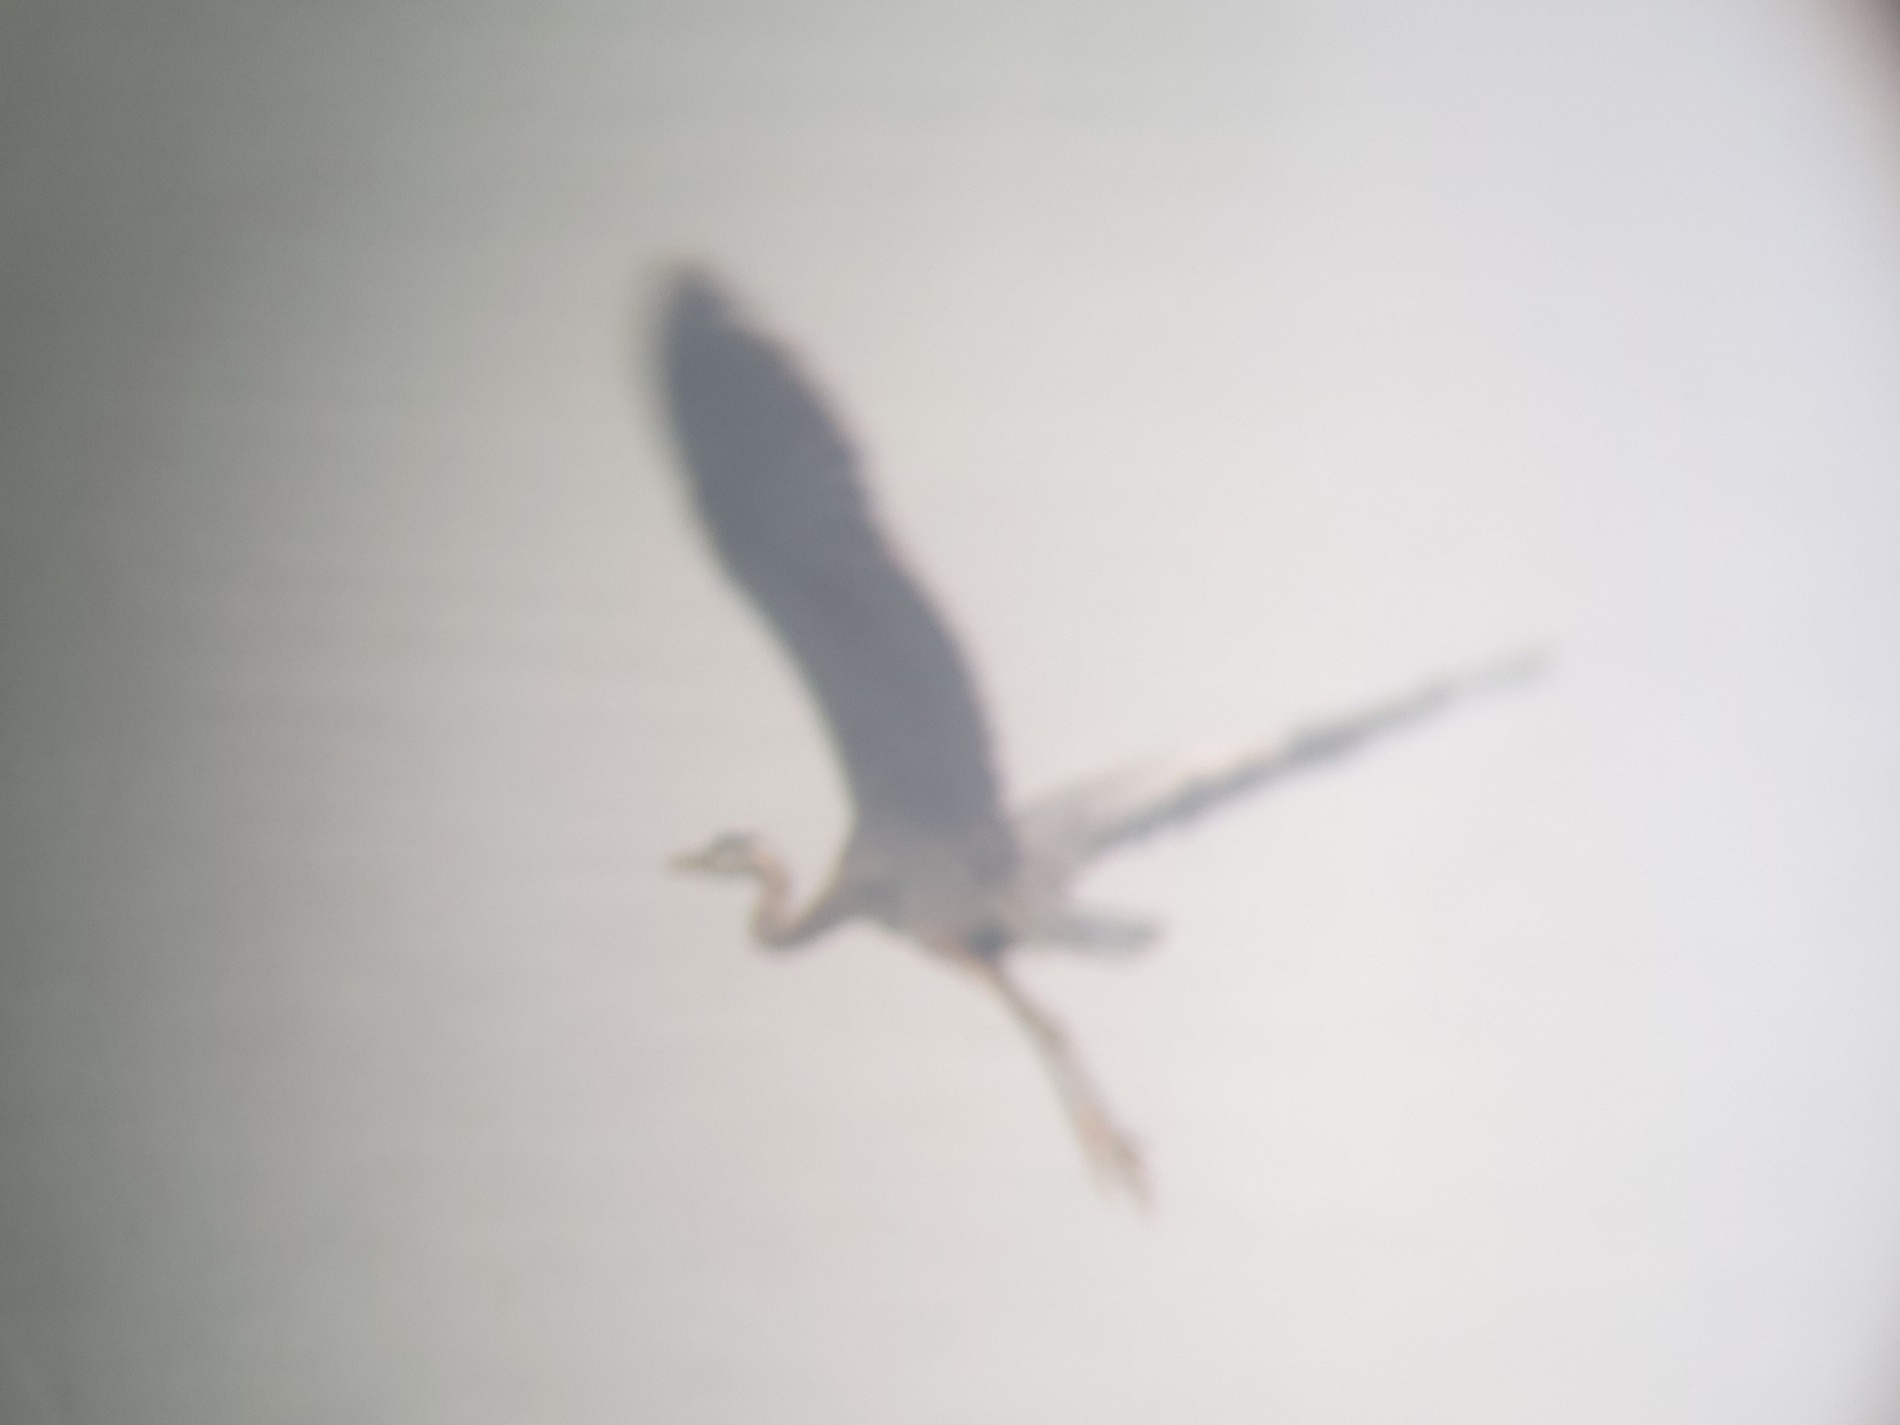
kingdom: Animalia
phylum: Chordata
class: Aves
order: Pelecaniformes
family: Ardeidae
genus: Ardea
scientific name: Ardea herodias
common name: Great blue heron
